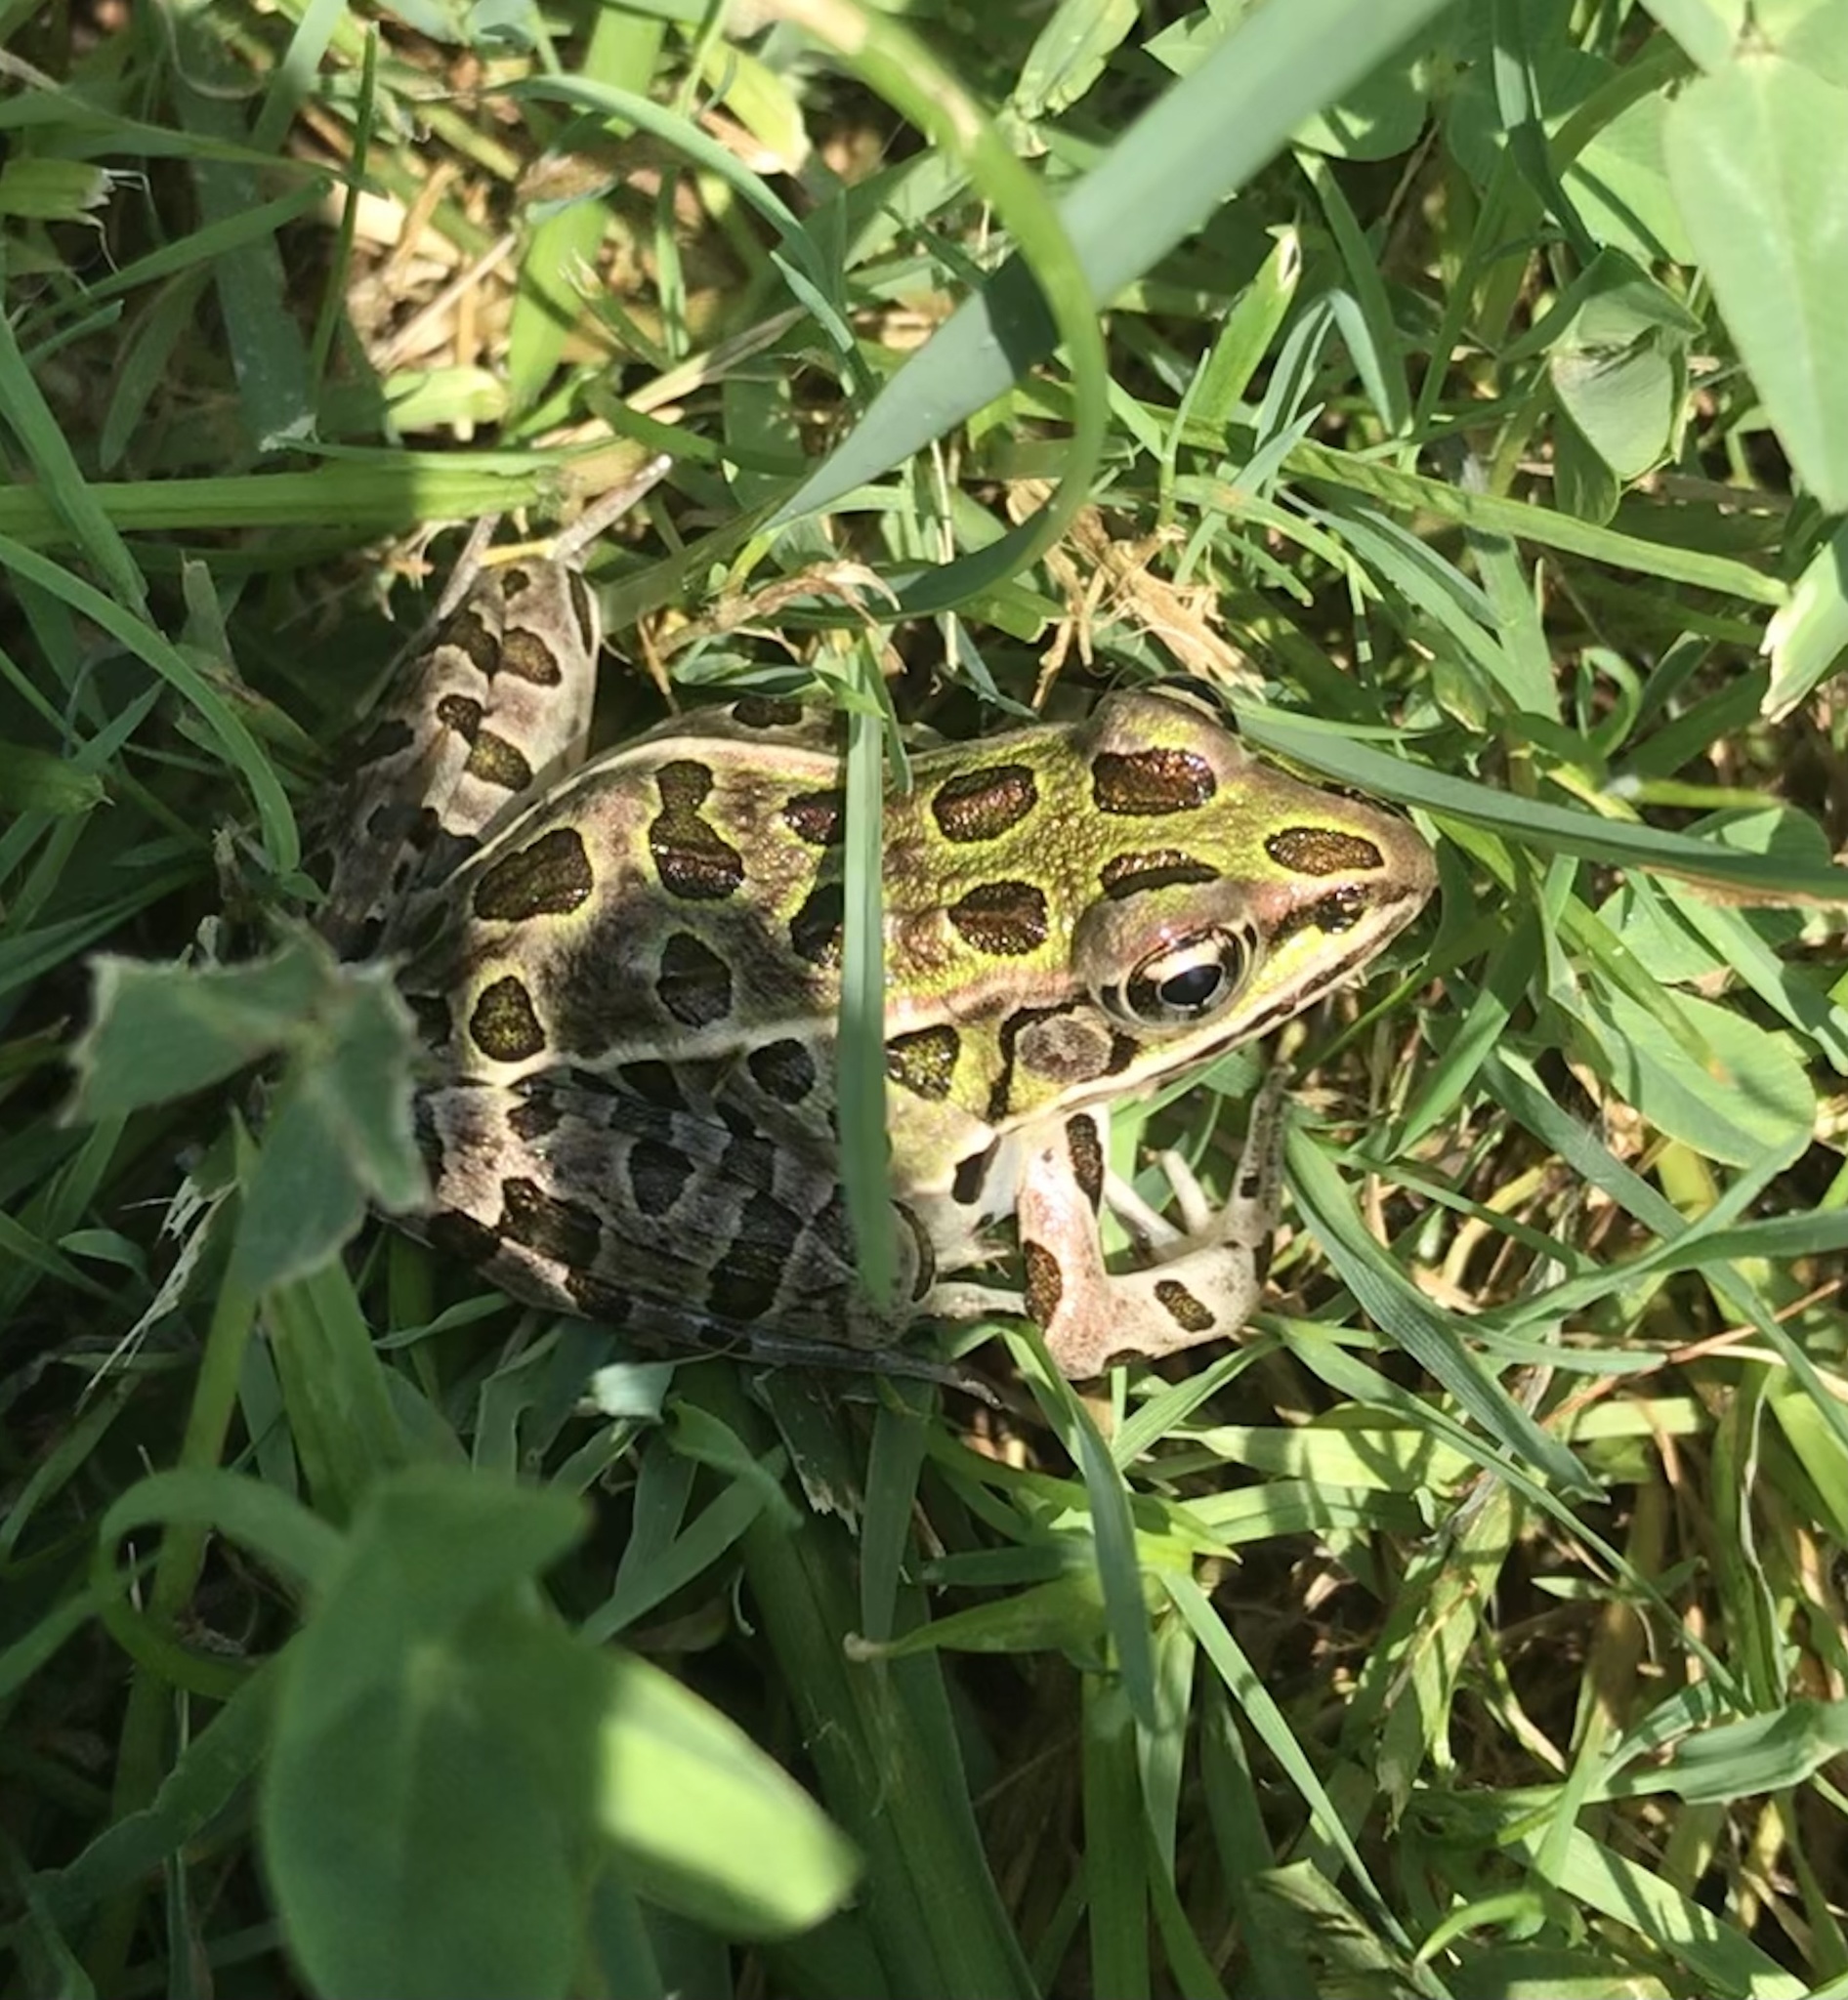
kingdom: Animalia
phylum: Chordata
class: Amphibia
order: Anura
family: Ranidae
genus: Lithobates
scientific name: Lithobates pipiens
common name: Northern leopard frog
